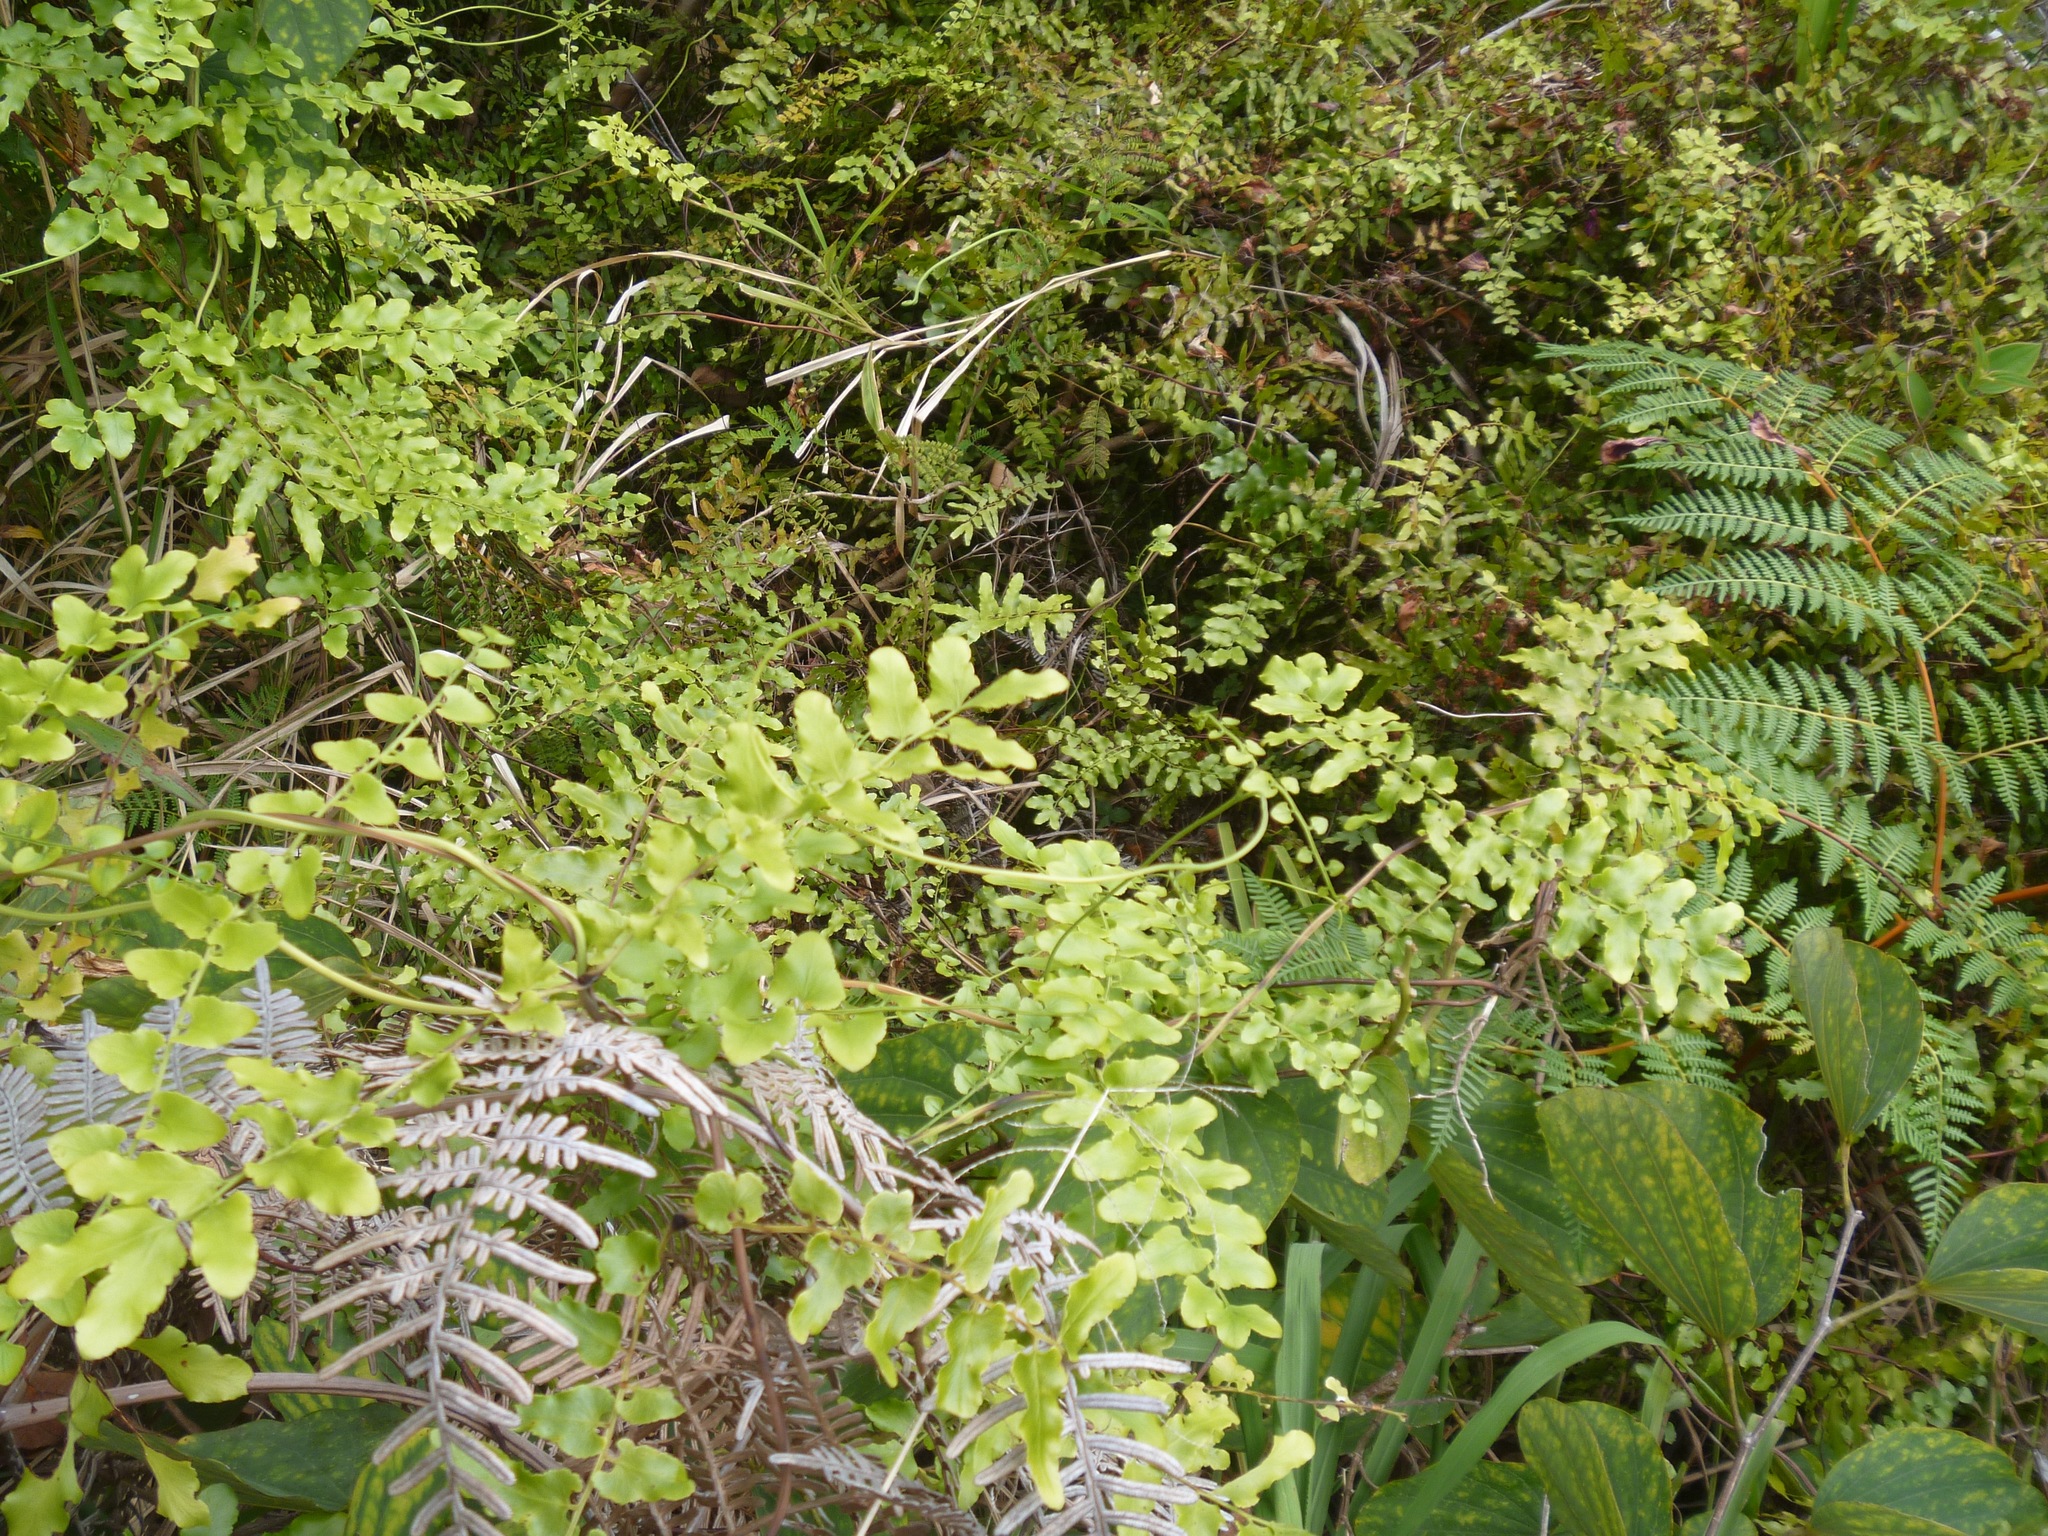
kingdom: Plantae
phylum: Tracheophyta
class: Polypodiopsida
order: Schizaeales
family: Lygodiaceae
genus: Lygodium
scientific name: Lygodium reticulatum
